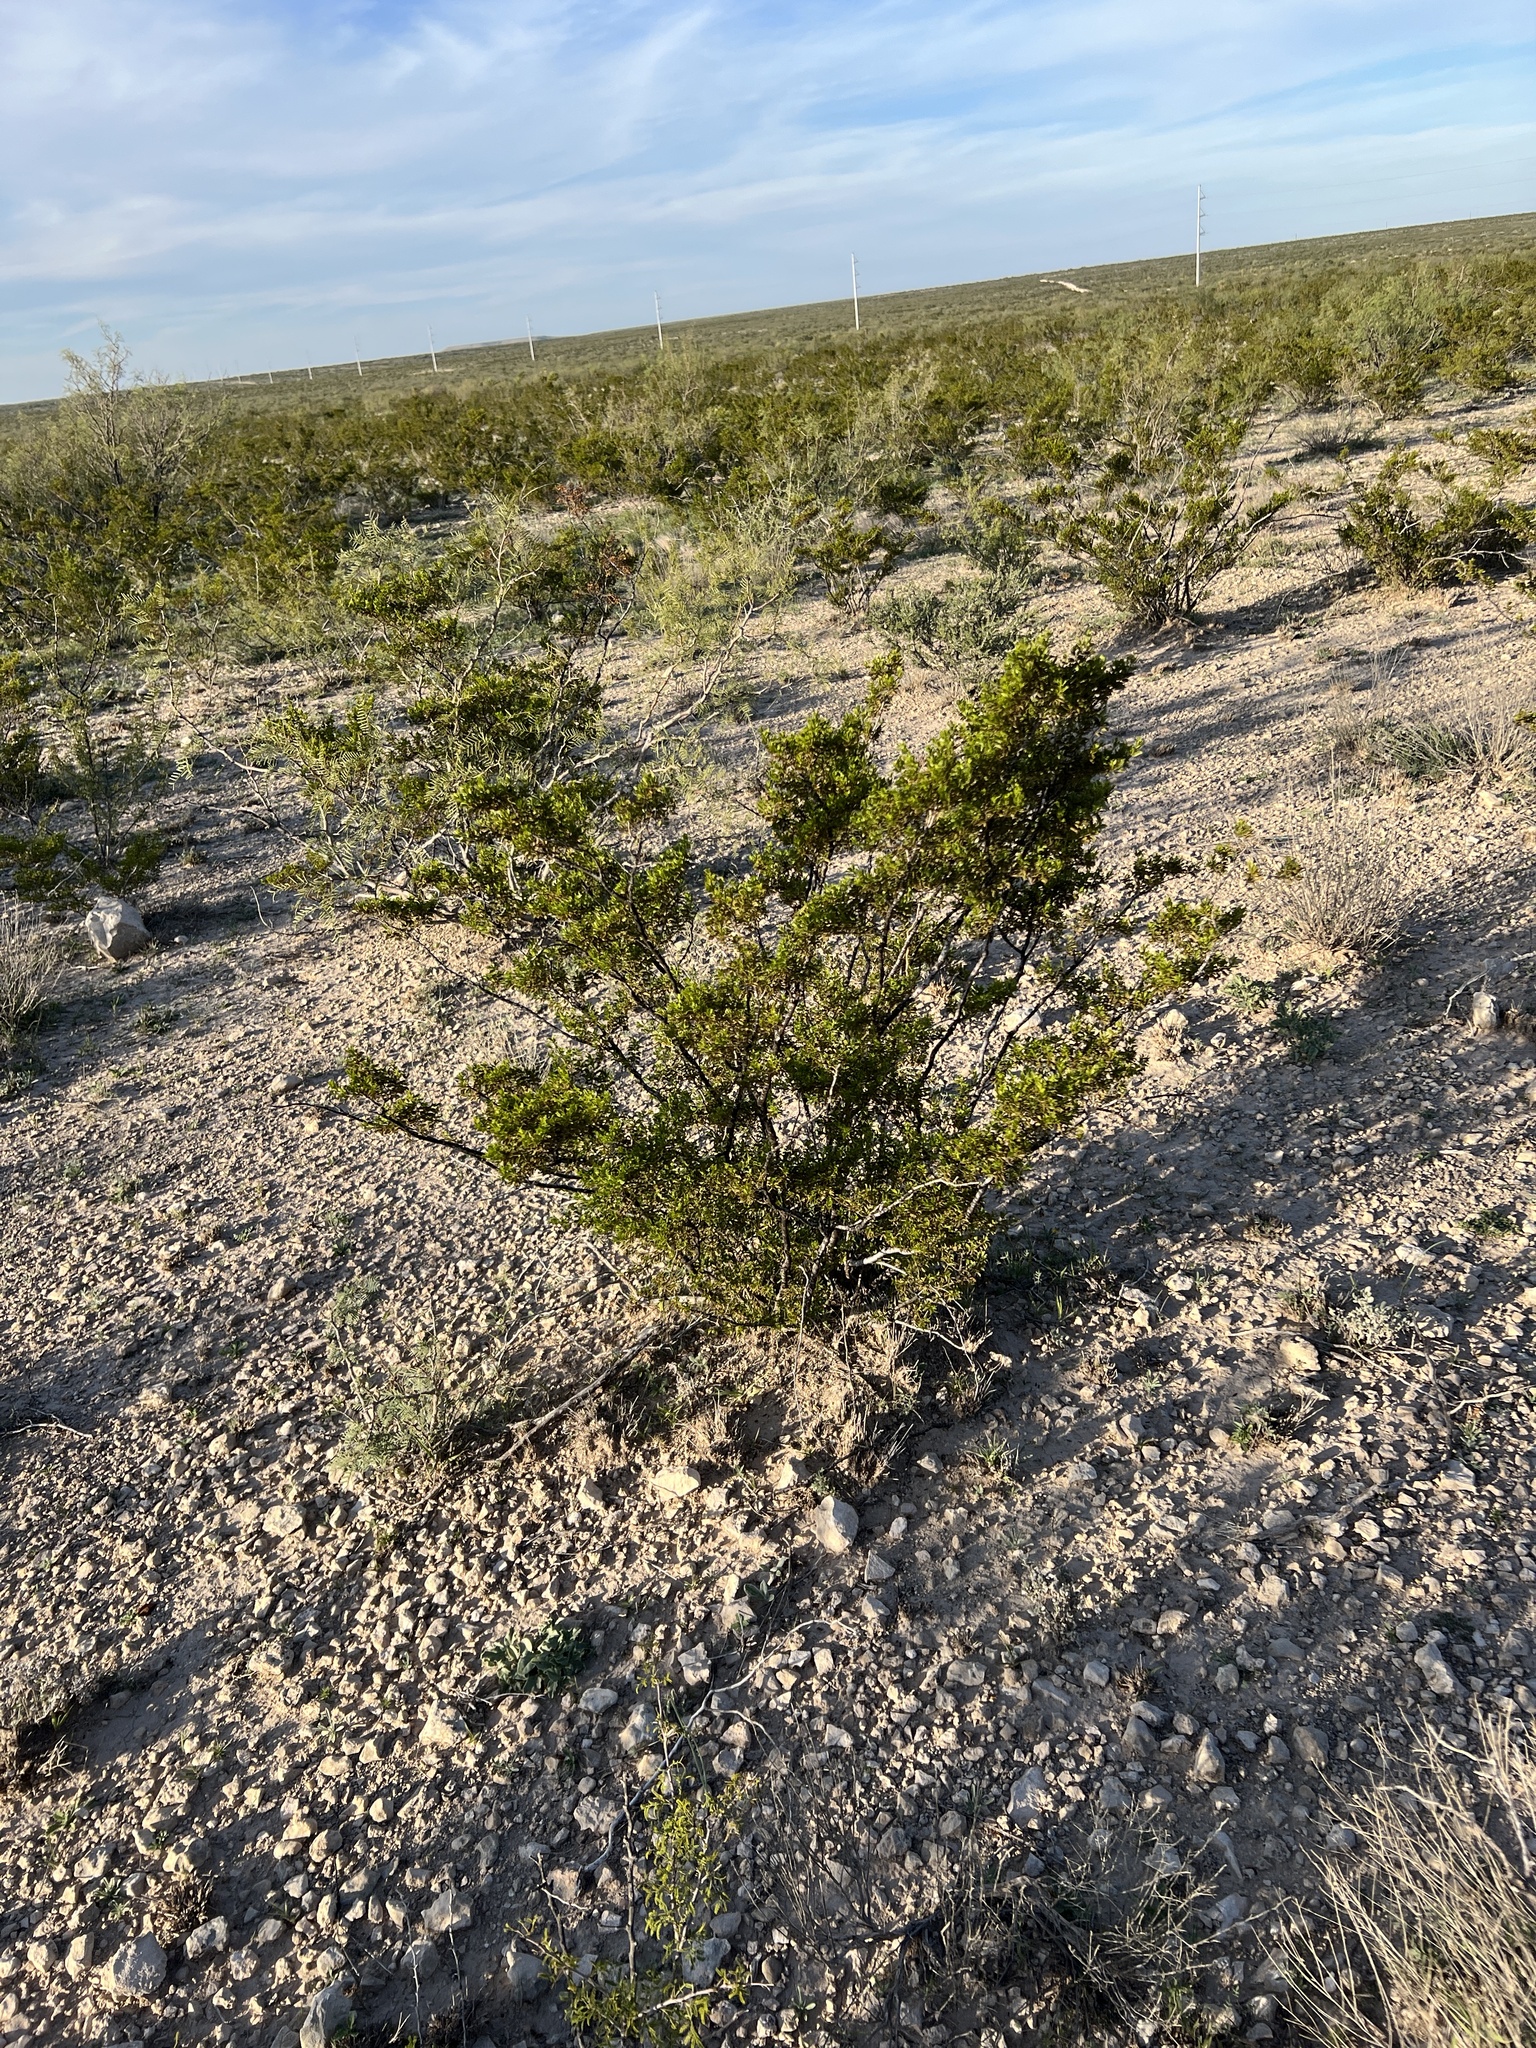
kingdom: Plantae
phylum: Tracheophyta
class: Magnoliopsida
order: Zygophyllales
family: Zygophyllaceae
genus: Larrea
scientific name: Larrea tridentata
